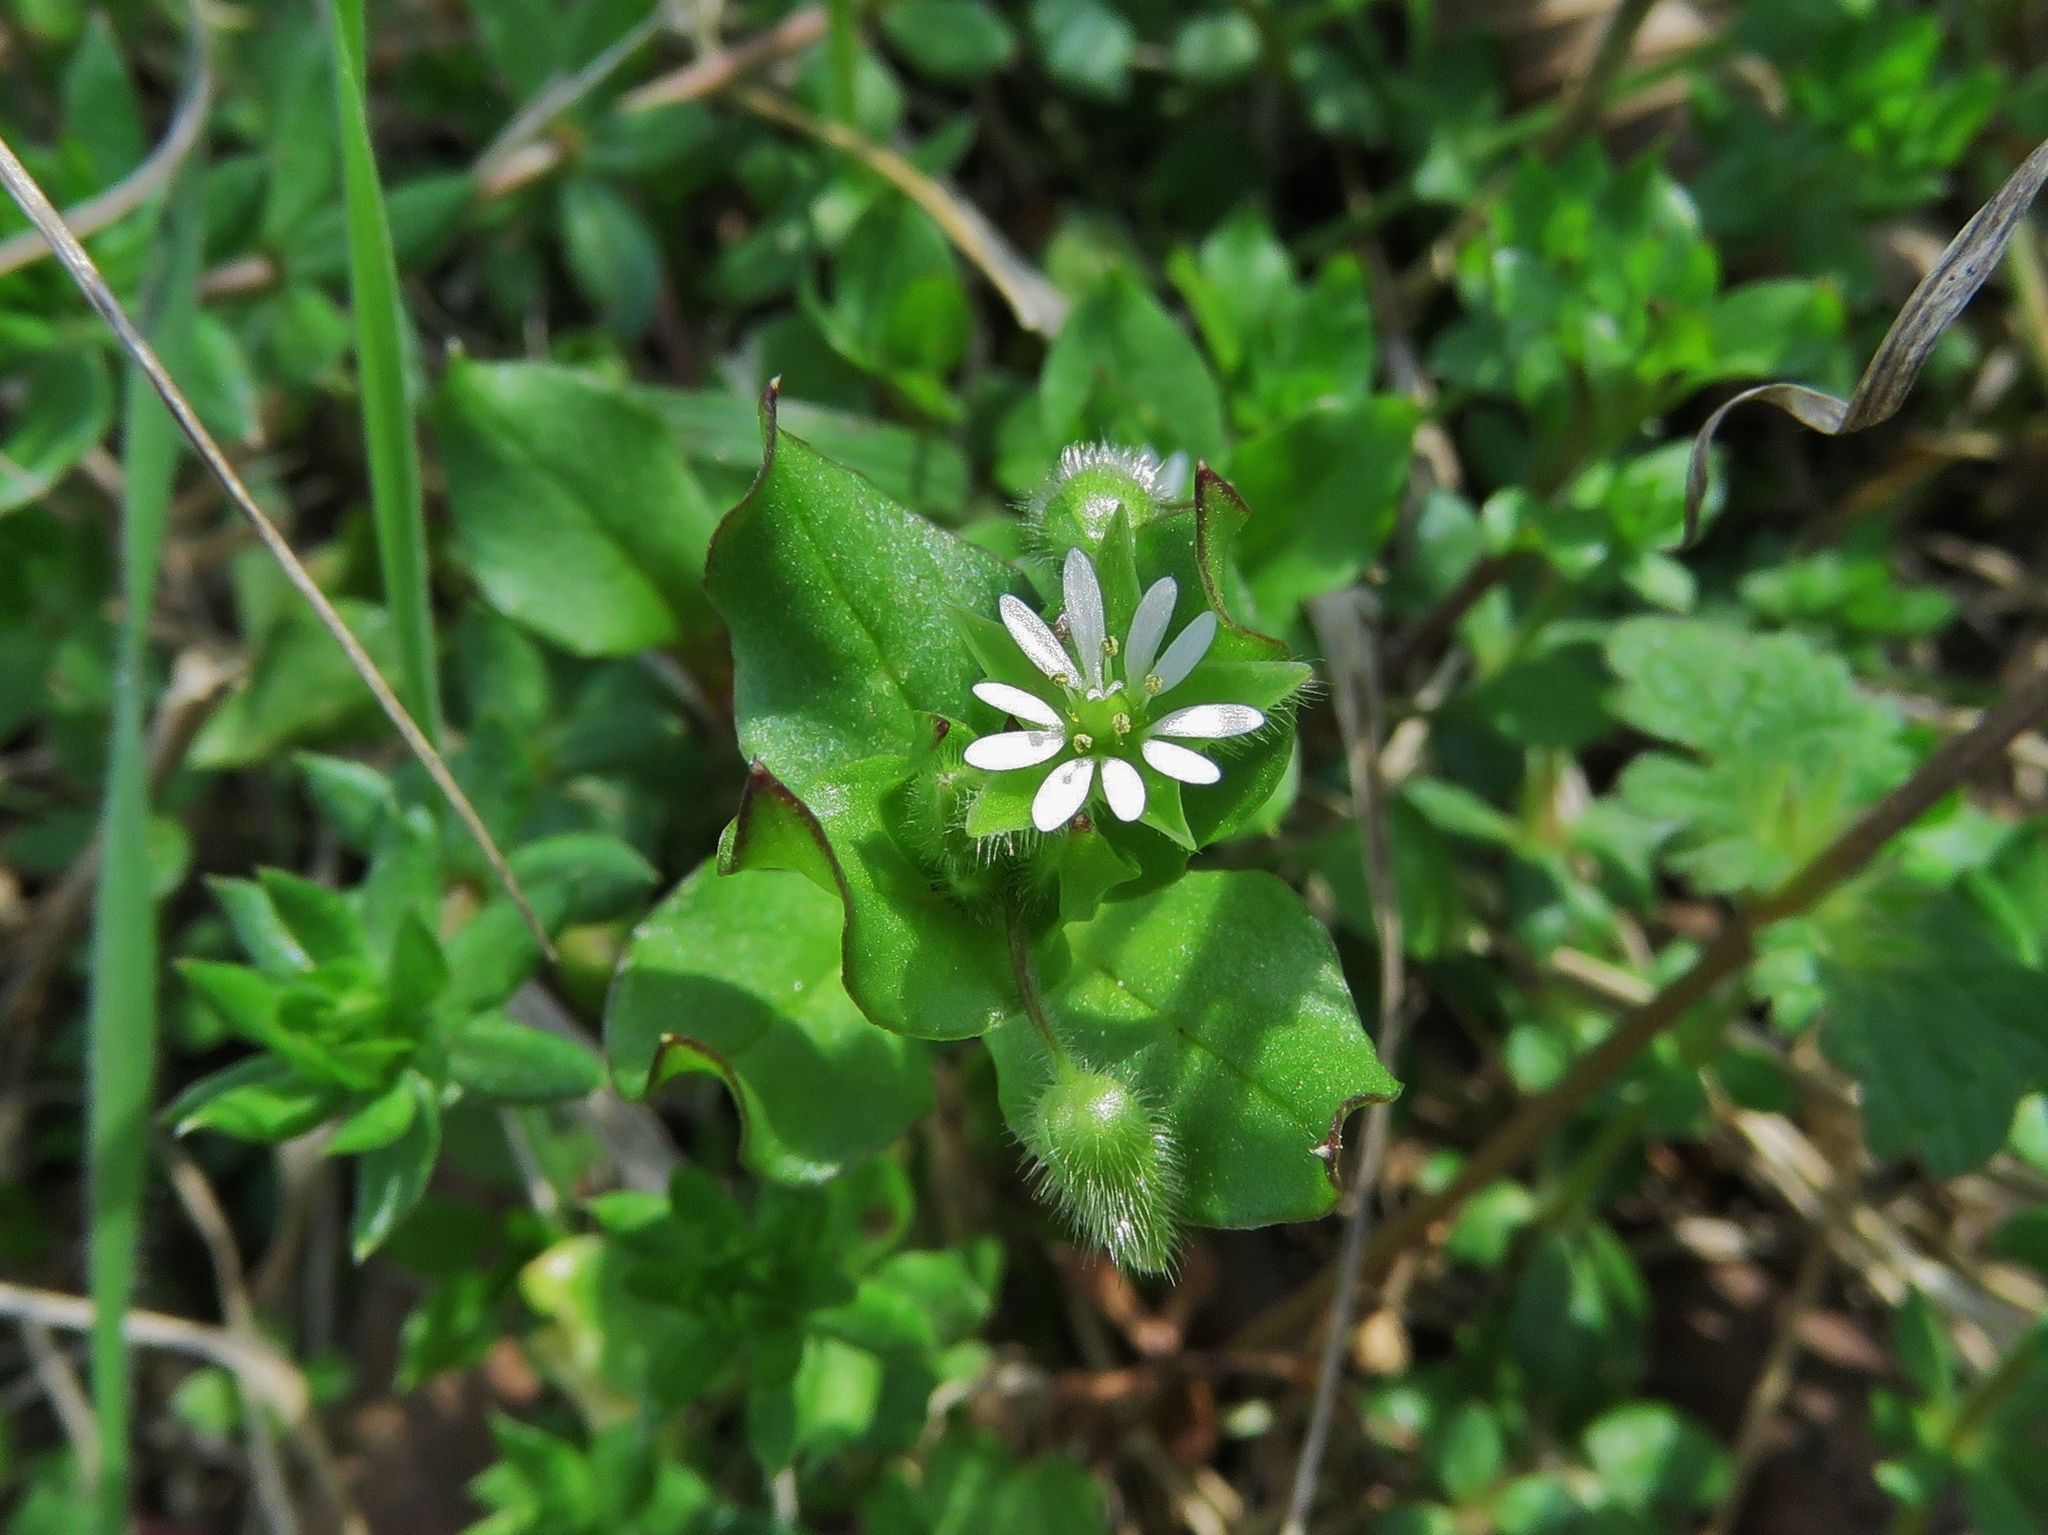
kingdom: Plantae
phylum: Tracheophyta
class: Magnoliopsida
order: Caryophyllales
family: Caryophyllaceae
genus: Stellaria
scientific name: Stellaria media
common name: Common chickweed
